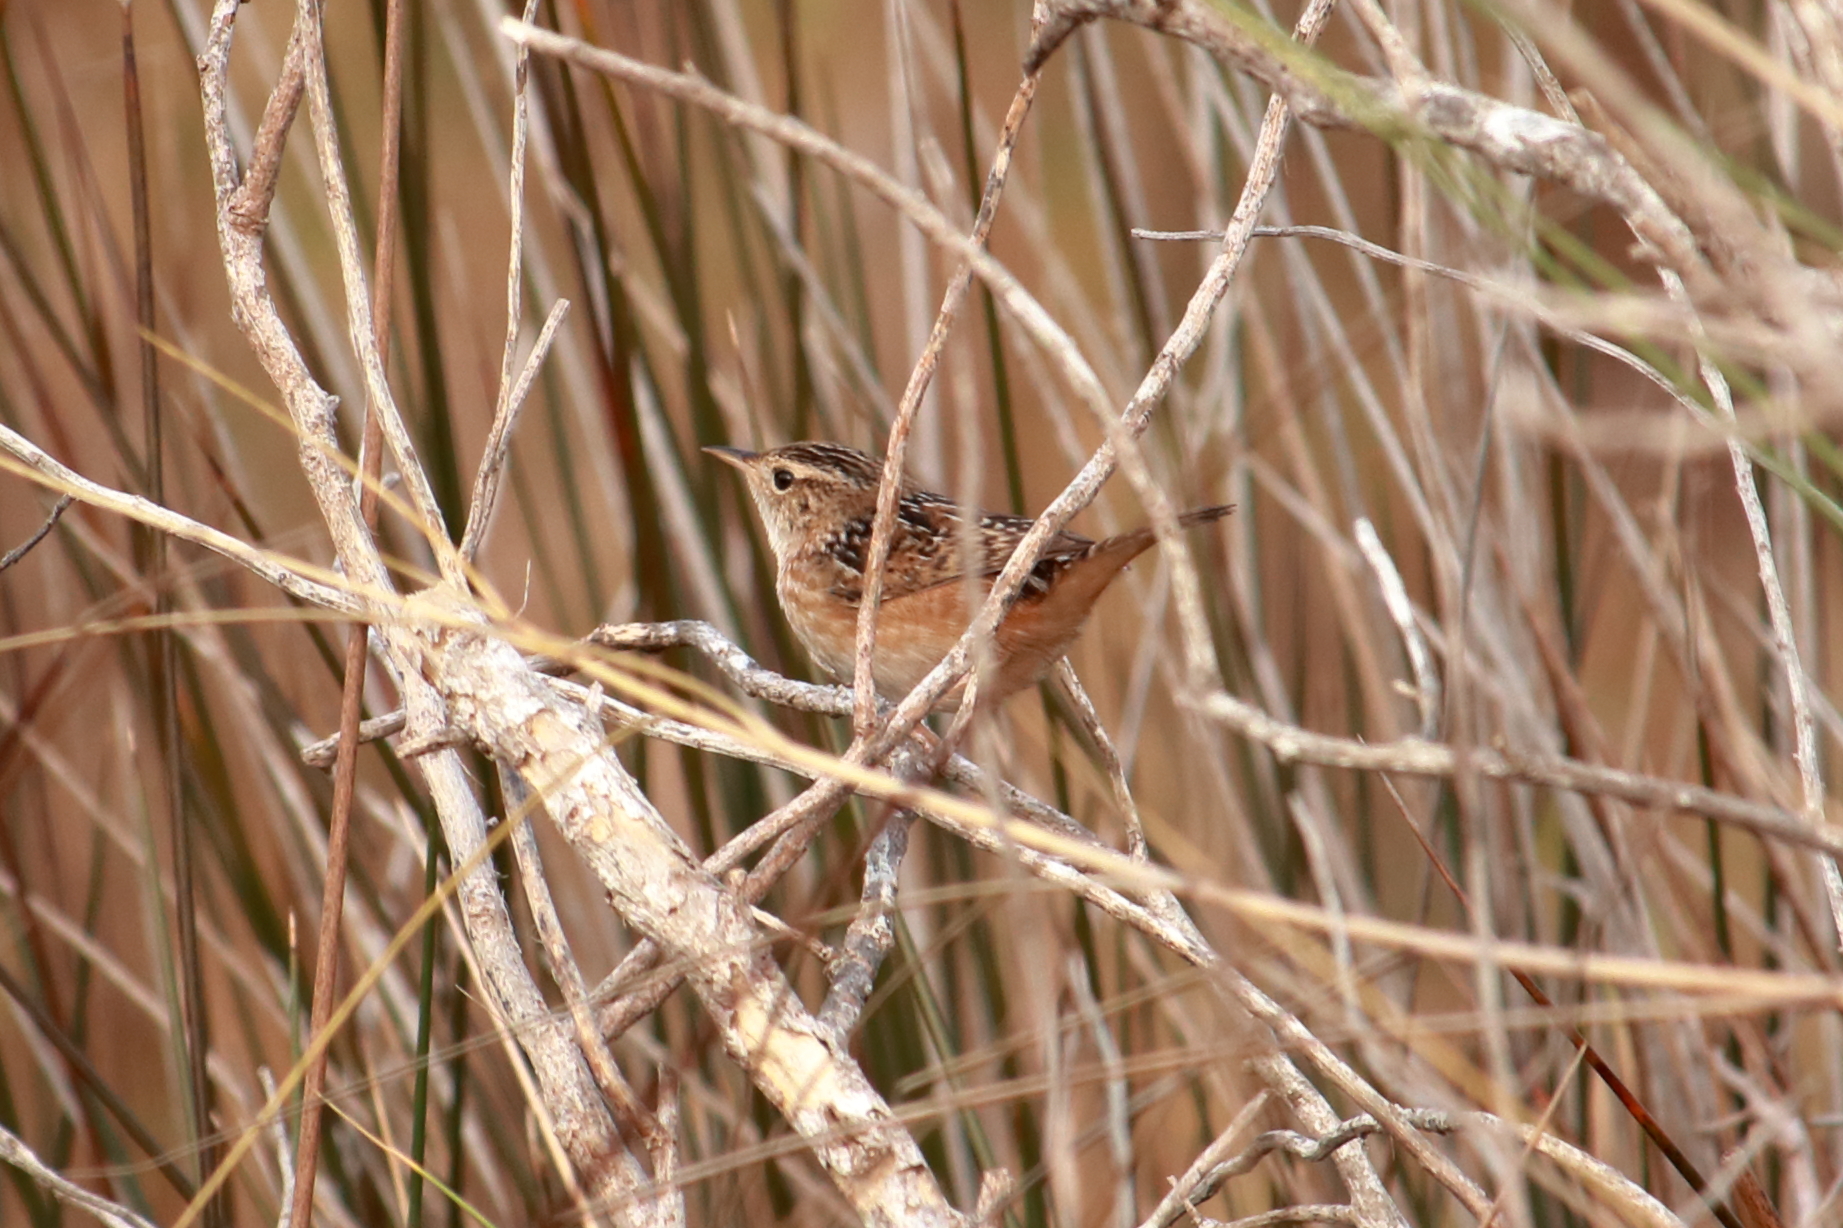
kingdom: Animalia
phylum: Chordata
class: Aves
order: Passeriformes
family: Troglodytidae
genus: Cistothorus
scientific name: Cistothorus platensis
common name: Sedge wren
